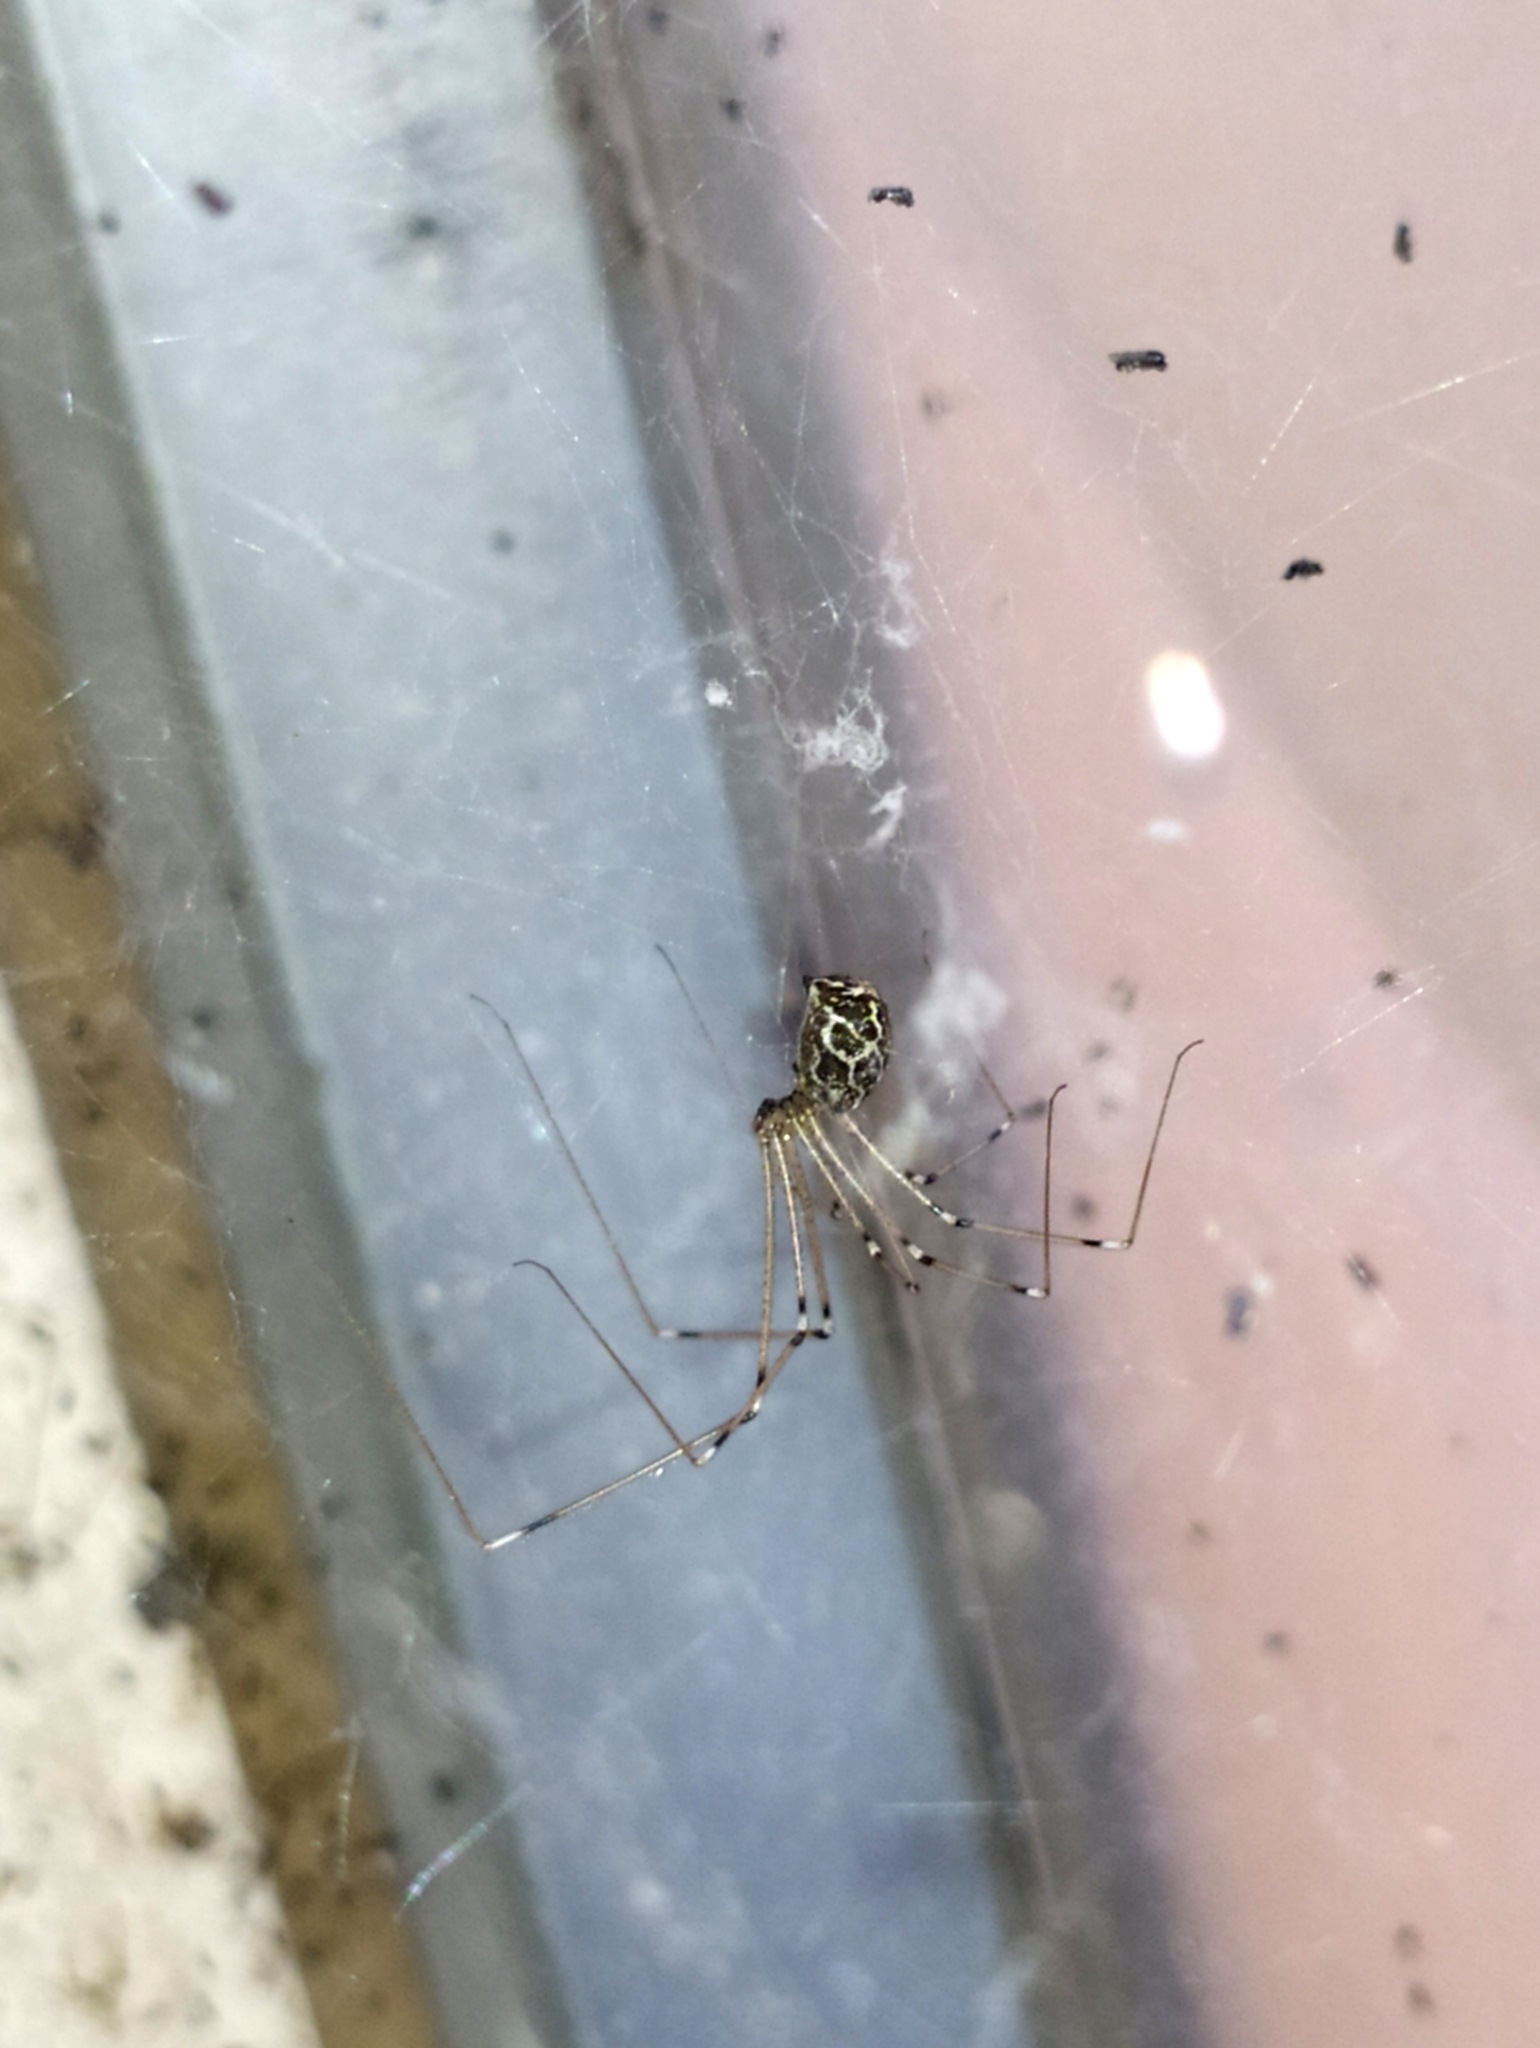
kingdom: Animalia
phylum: Arthropoda
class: Arachnida
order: Araneae
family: Pholcidae
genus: Holocnemus
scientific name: Holocnemus pluchei
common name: Marbled cellar spider
